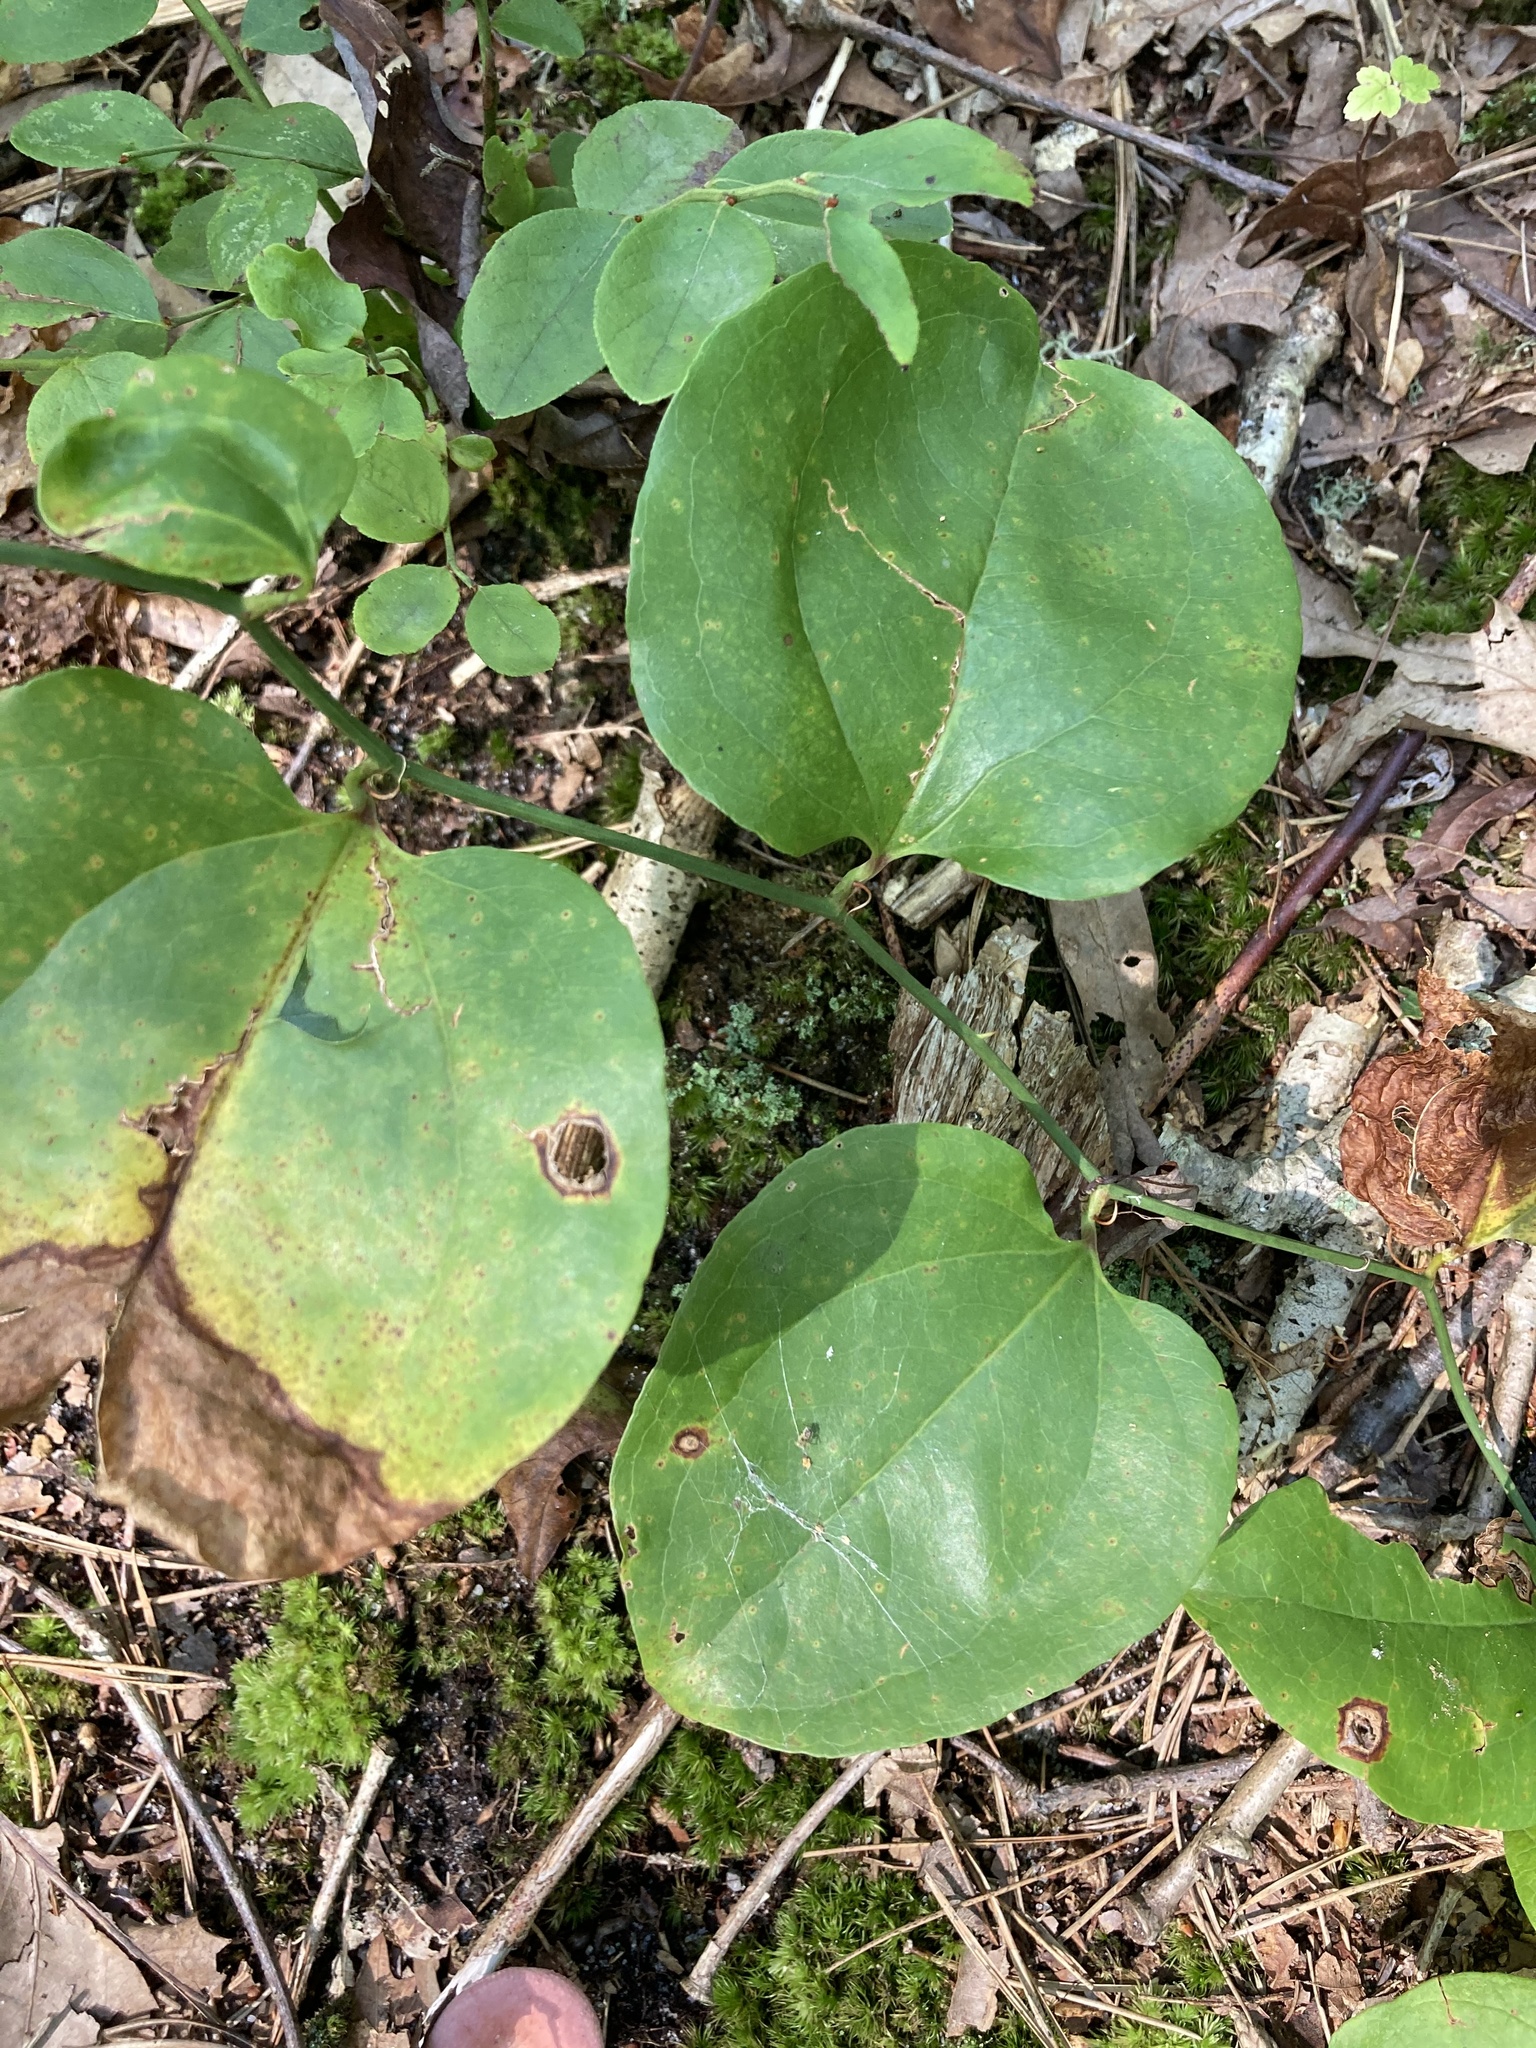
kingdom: Plantae
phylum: Tracheophyta
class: Liliopsida
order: Liliales
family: Smilacaceae
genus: Smilax
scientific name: Smilax rotundifolia
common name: Bullbriar
